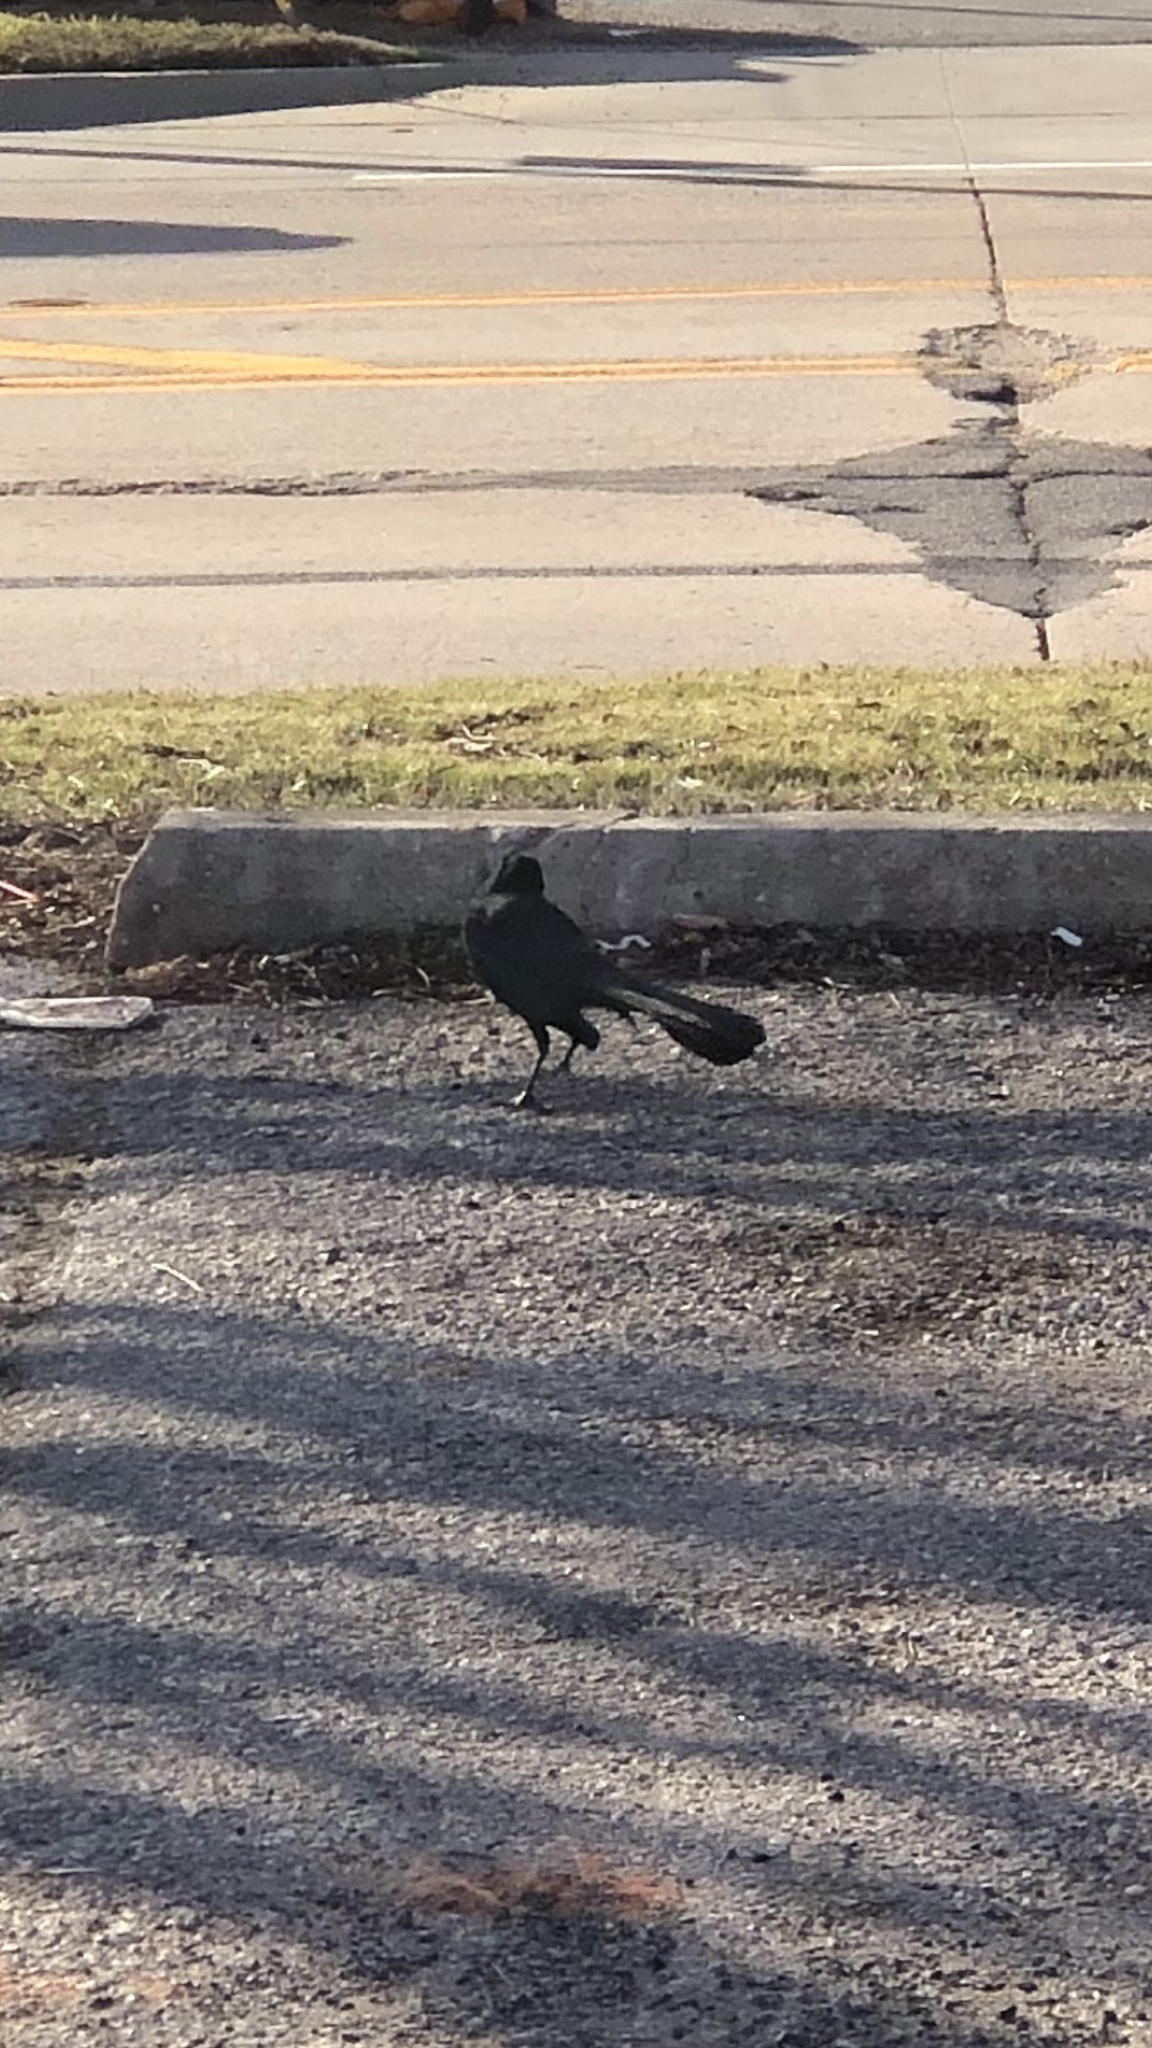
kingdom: Animalia
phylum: Chordata
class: Aves
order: Passeriformes
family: Icteridae
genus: Quiscalus
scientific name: Quiscalus mexicanus
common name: Great-tailed grackle
